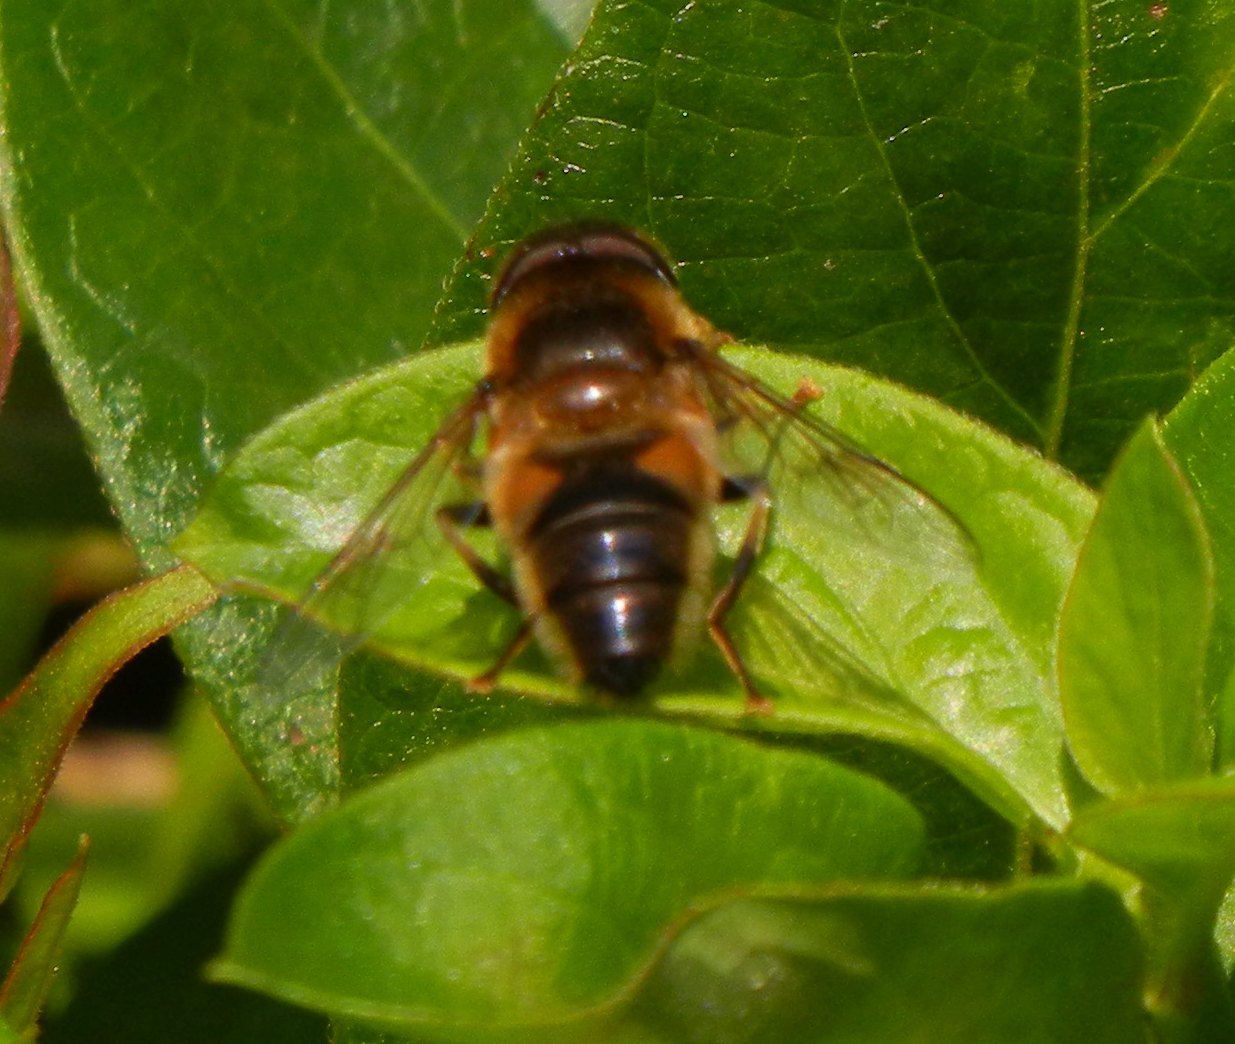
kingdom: Animalia
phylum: Arthropoda
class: Insecta
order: Diptera
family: Syrphidae
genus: Eristalis
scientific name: Eristalis pertinax
